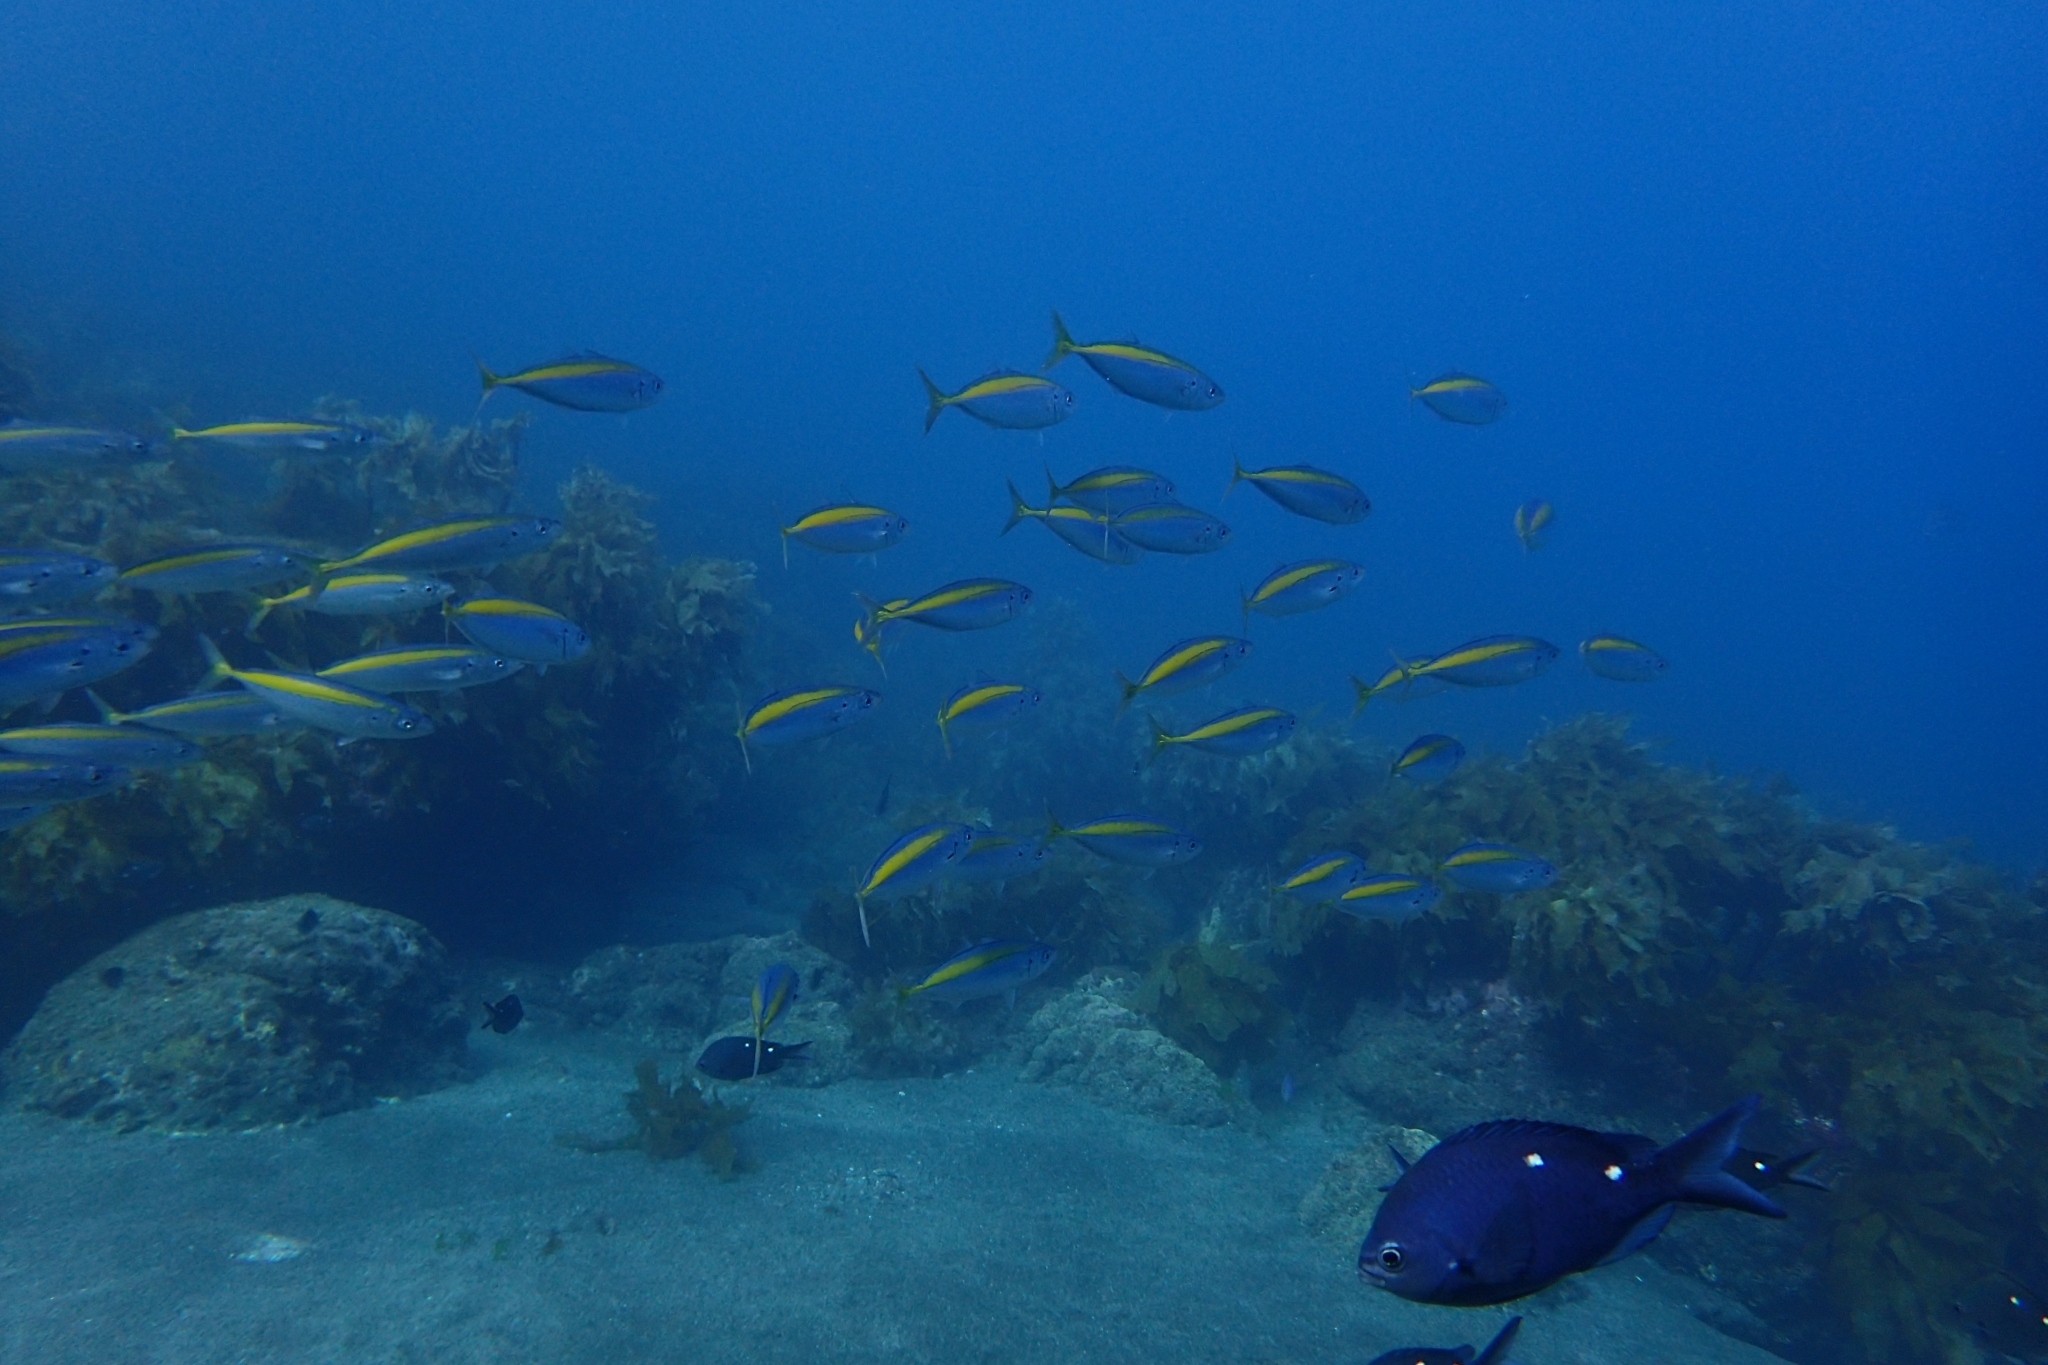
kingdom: Animalia
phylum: Chordata
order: Perciformes
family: Carangidae
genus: Decapterus
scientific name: Decapterus koheru
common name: Koheru
